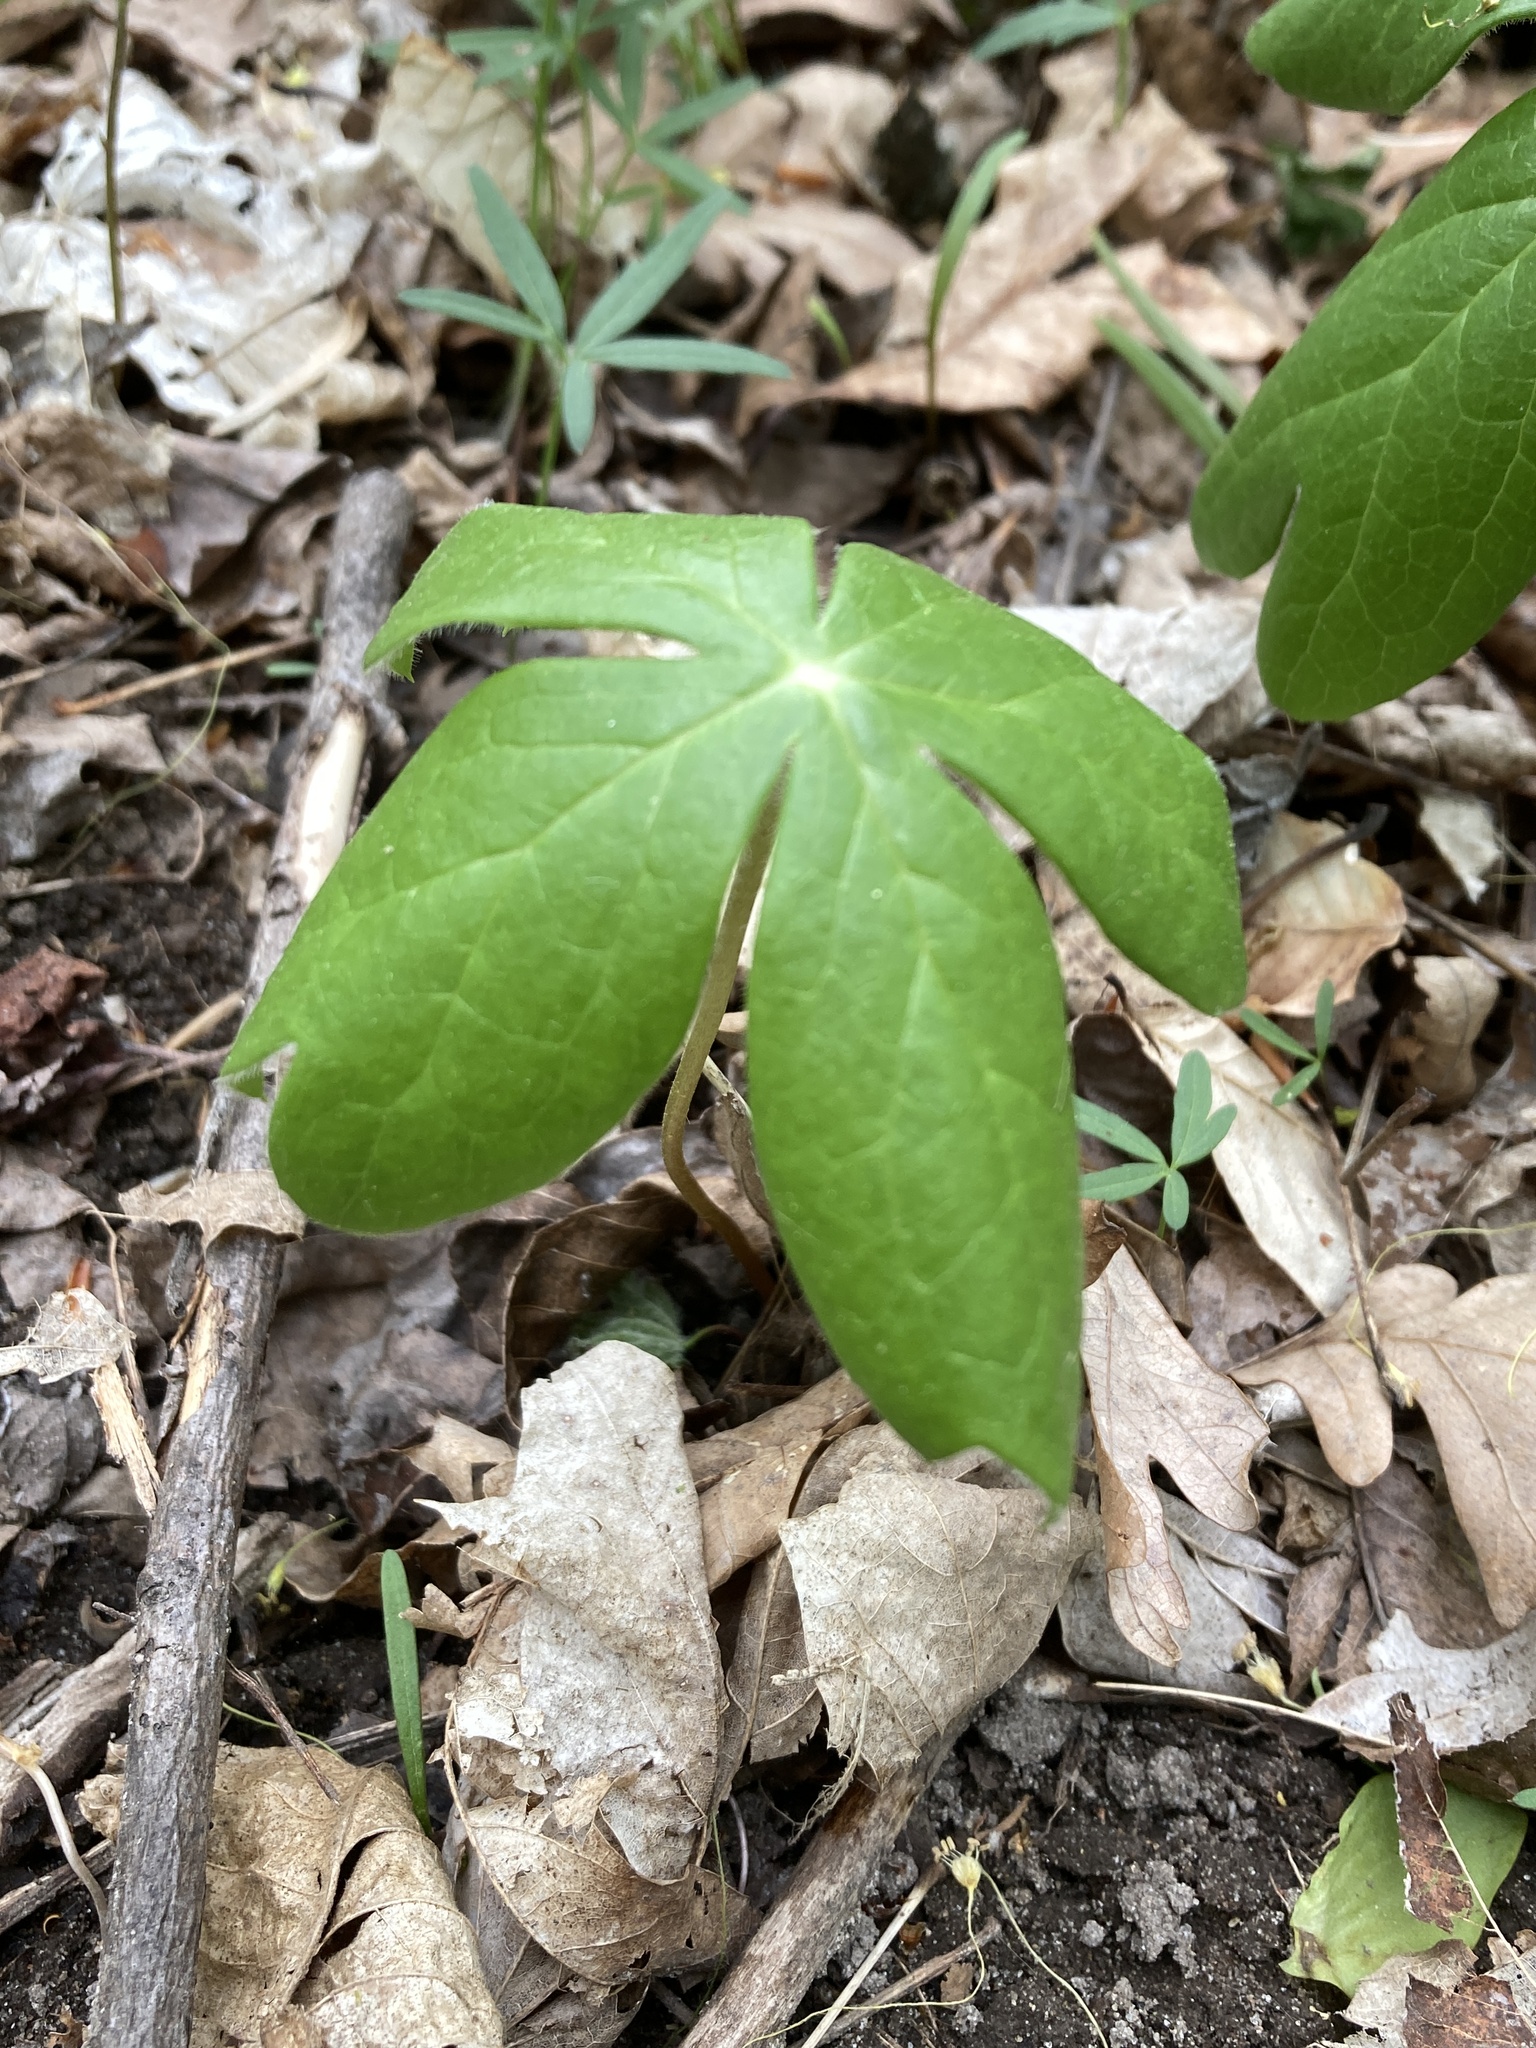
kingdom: Plantae
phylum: Tracheophyta
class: Magnoliopsida
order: Ranunculales
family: Berberidaceae
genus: Podophyllum
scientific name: Podophyllum peltatum
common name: Wild mandrake
